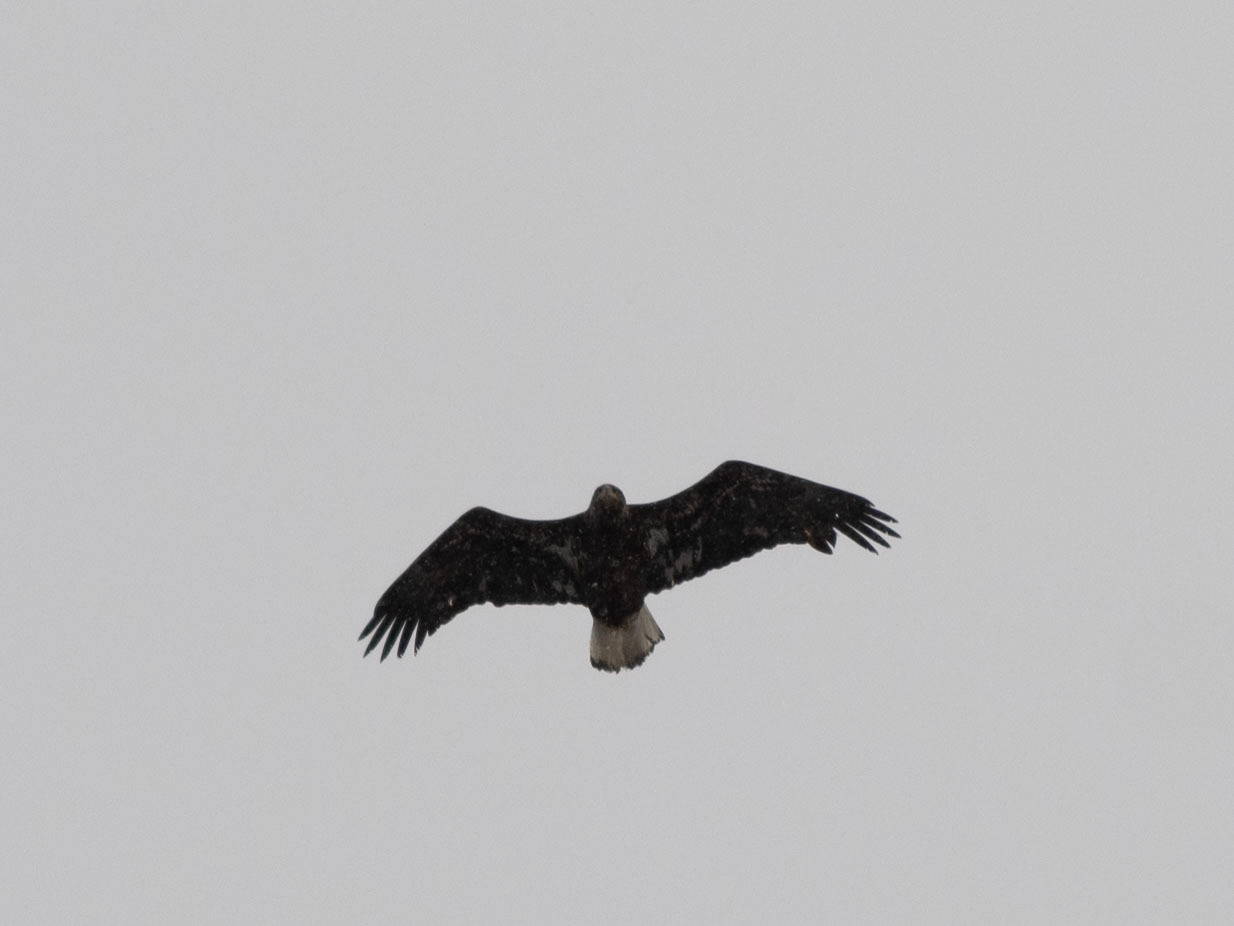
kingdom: Animalia
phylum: Chordata
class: Aves
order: Accipitriformes
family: Accipitridae
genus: Haliaeetus
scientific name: Haliaeetus leucocephalus
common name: Bald eagle
